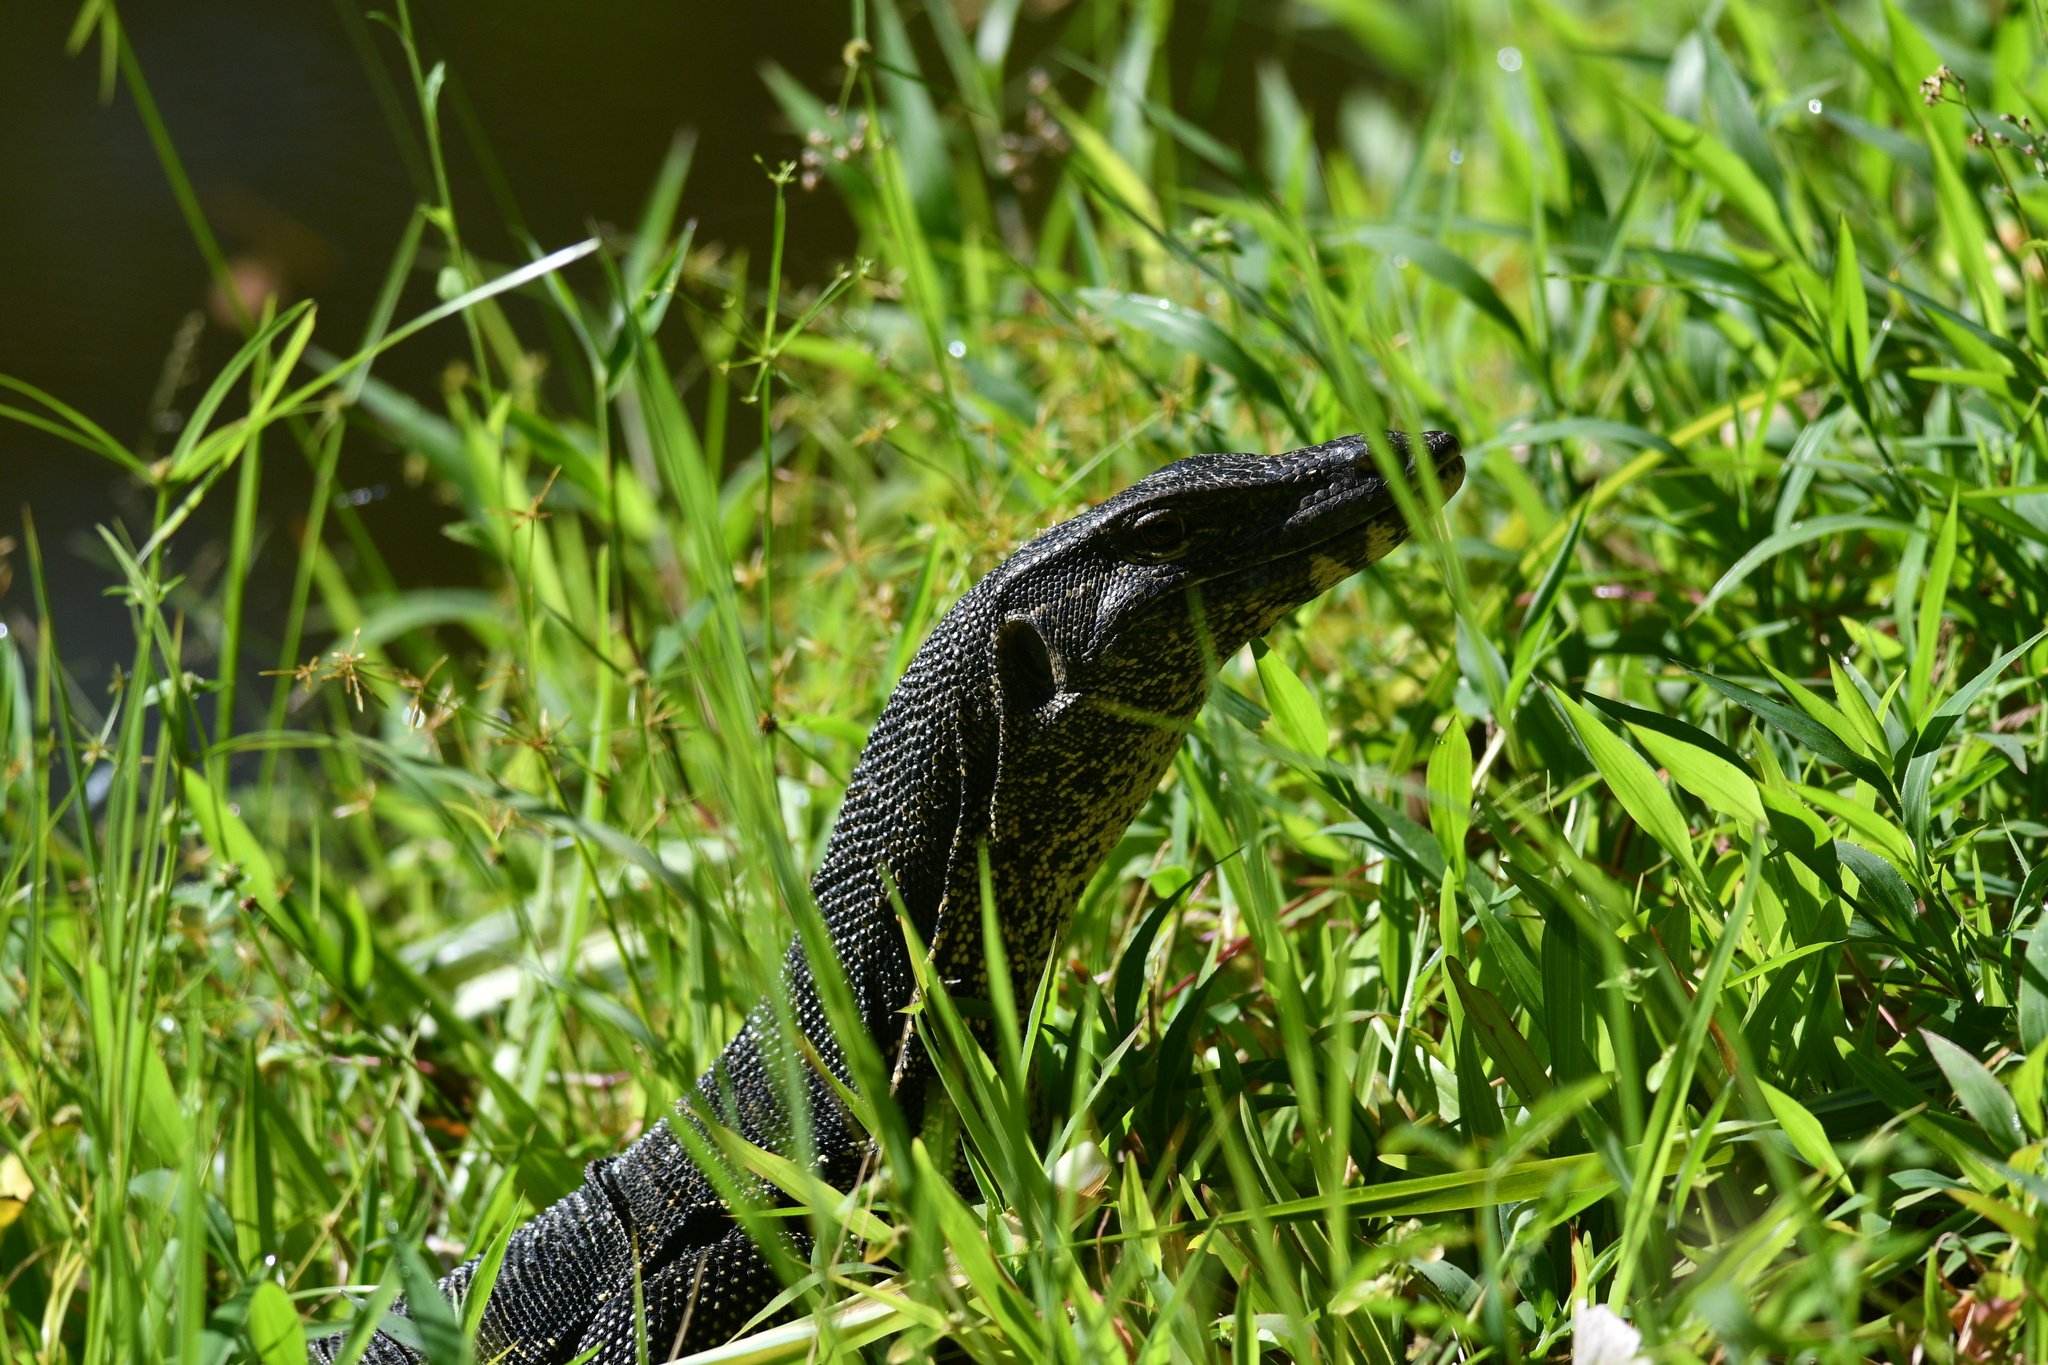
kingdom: Animalia
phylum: Chordata
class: Squamata
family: Varanidae
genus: Varanus
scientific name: Varanus salvator
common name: Common water monitor
